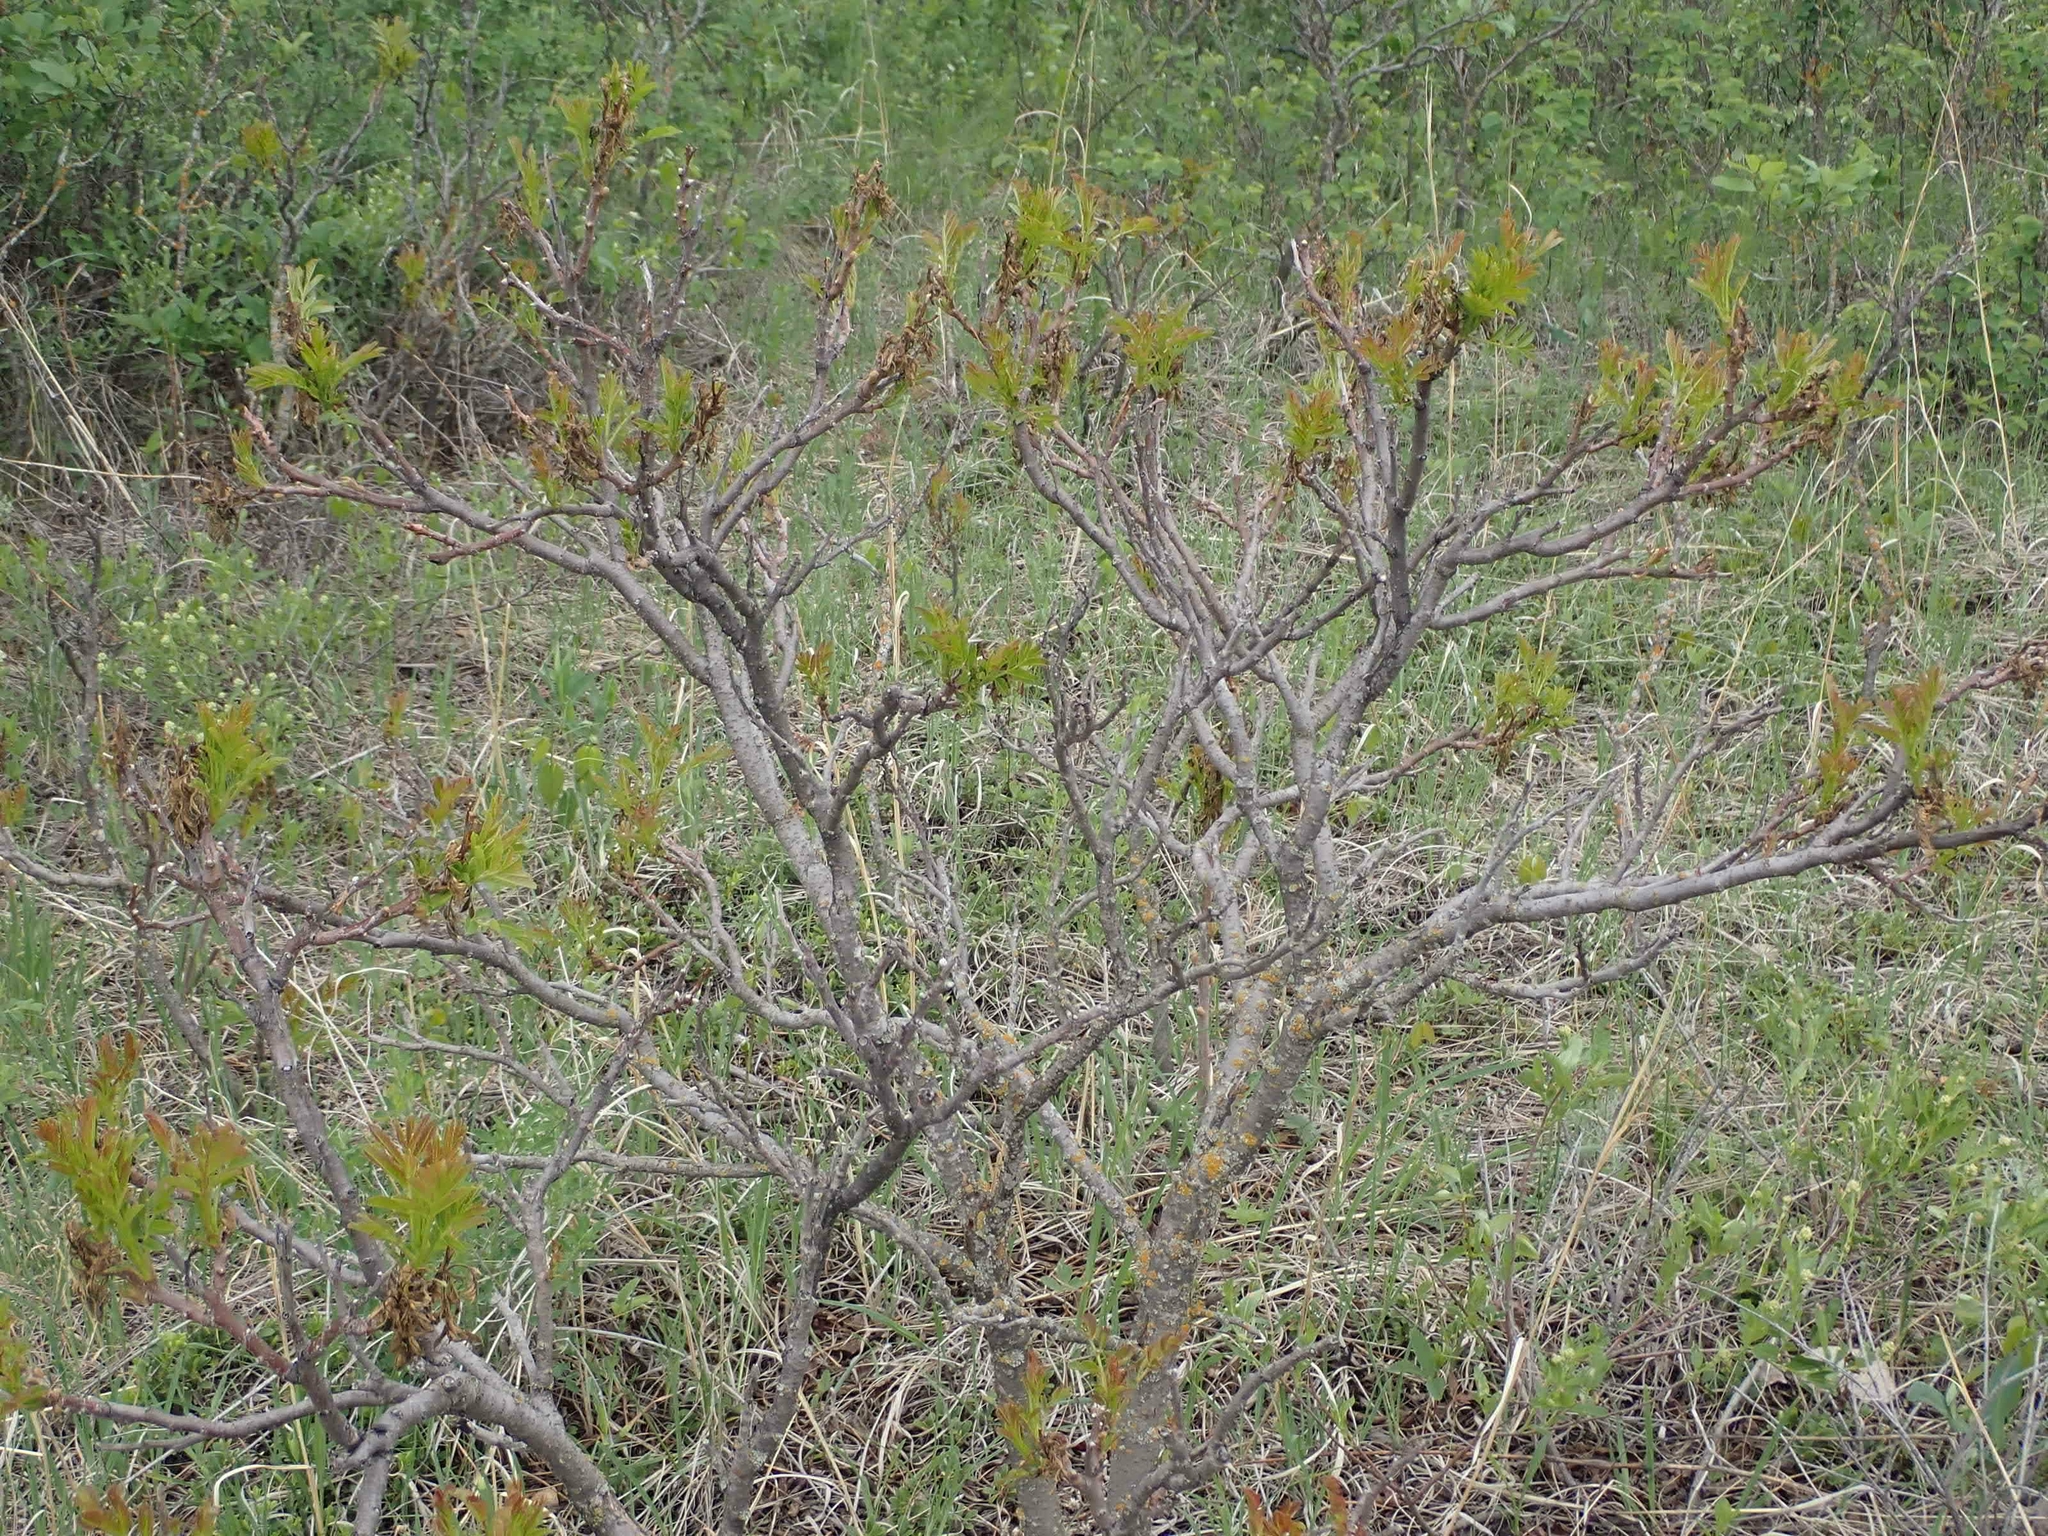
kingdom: Plantae
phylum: Tracheophyta
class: Magnoliopsida
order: Sapindales
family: Anacardiaceae
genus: Rhus
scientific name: Rhus glabra
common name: Scarlet sumac
